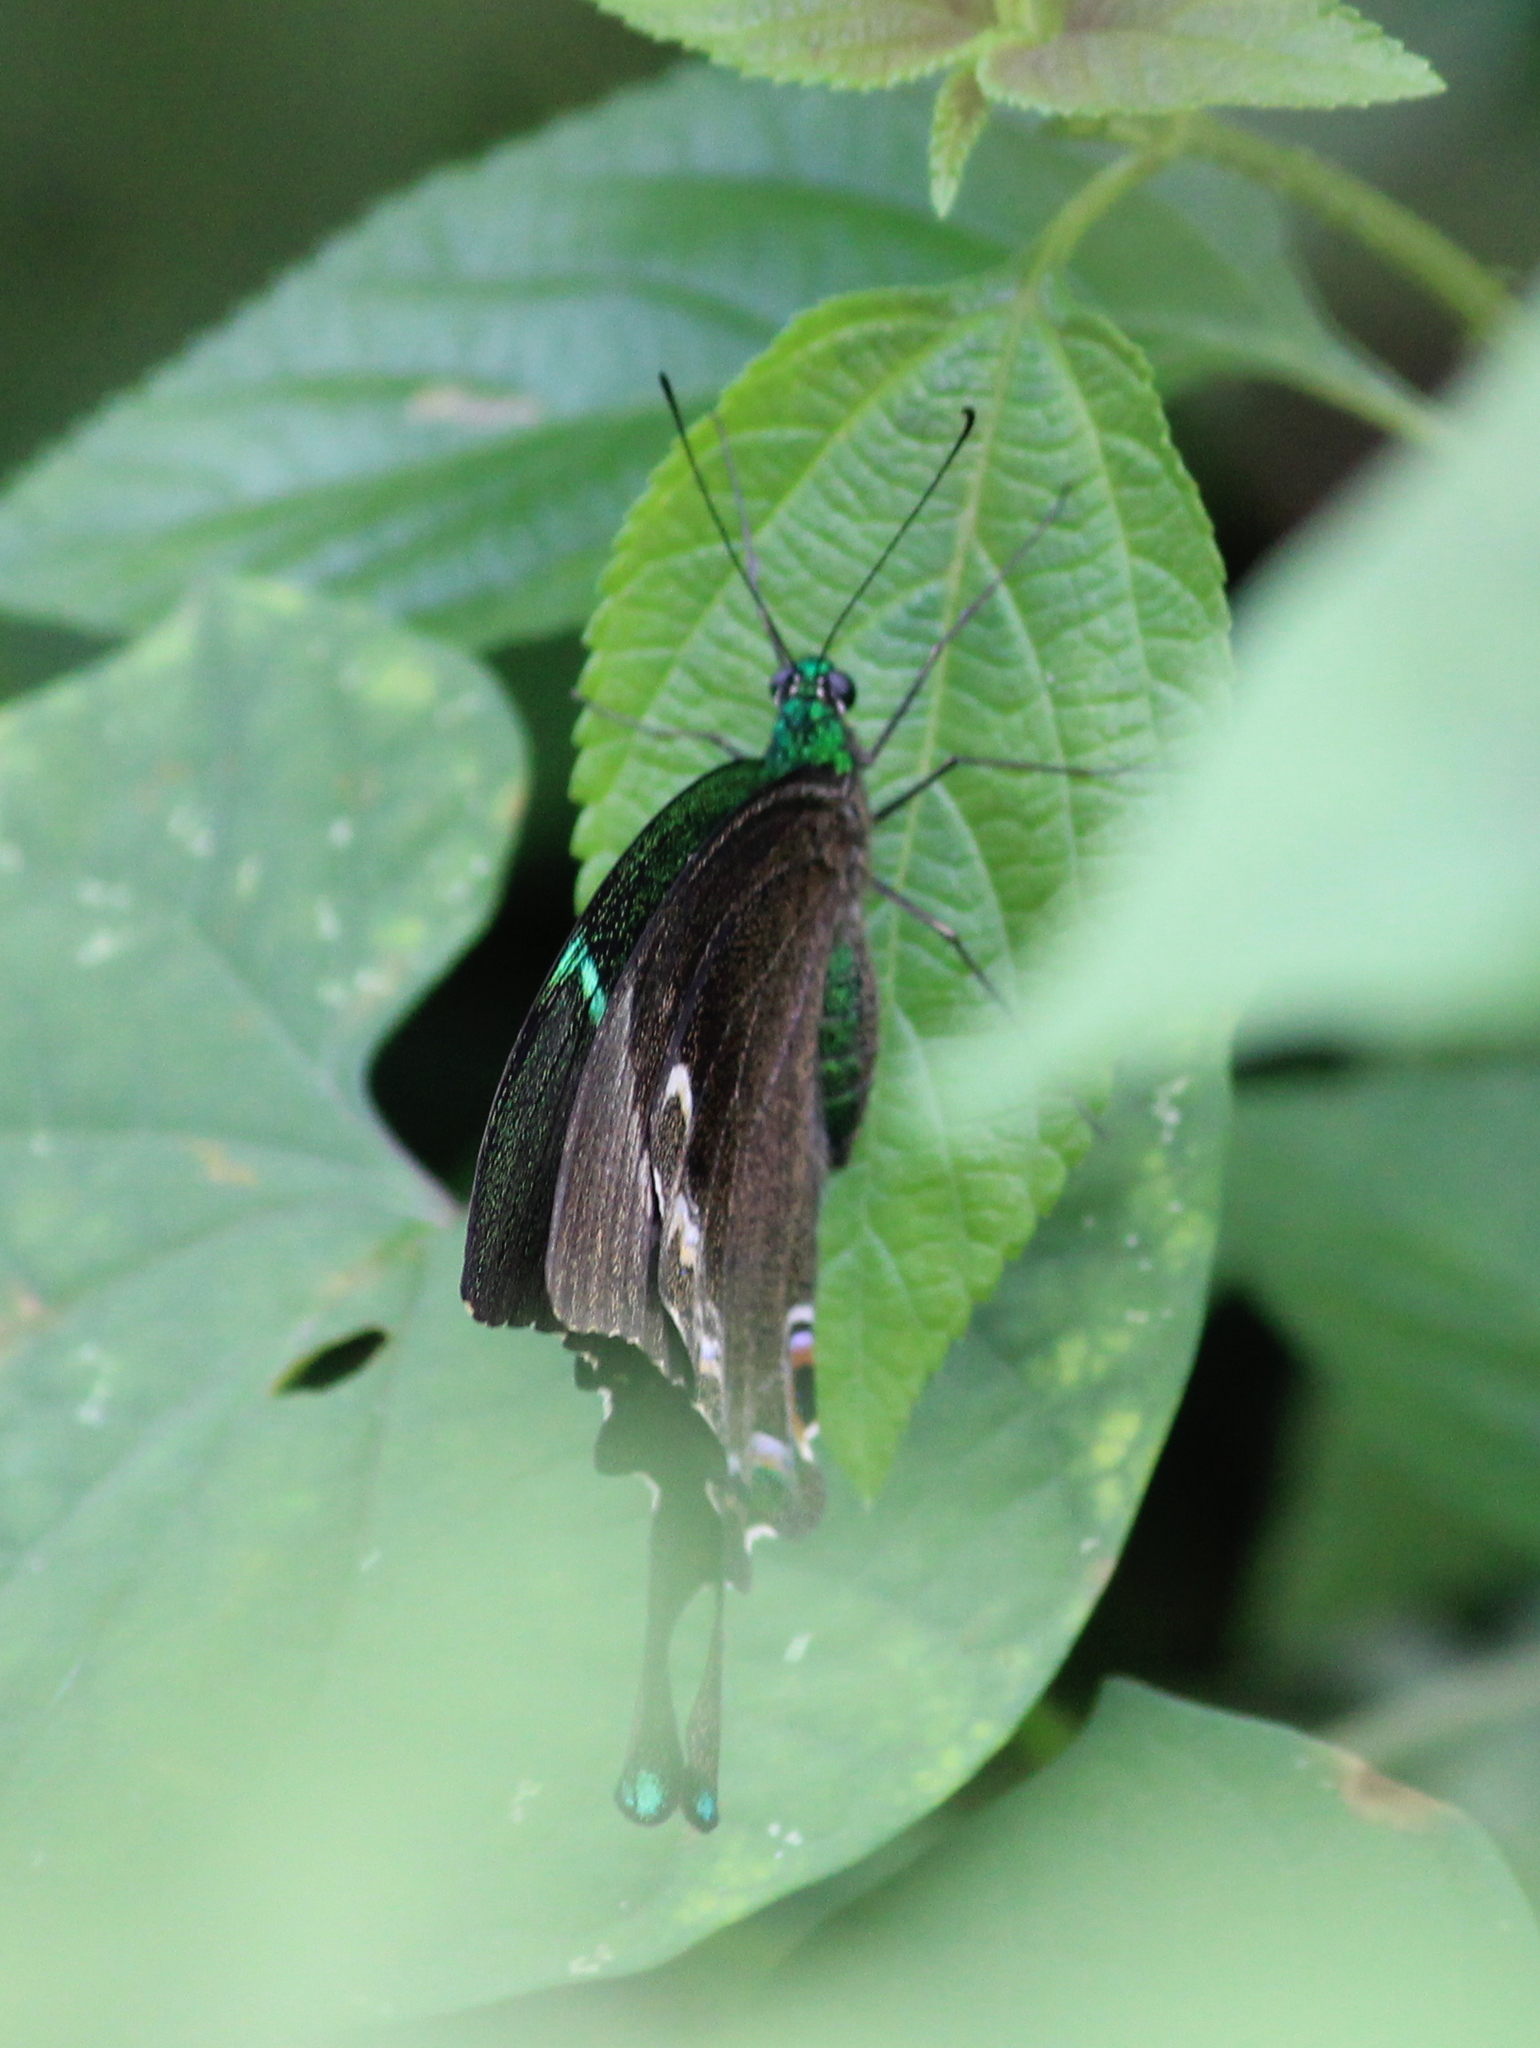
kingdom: Animalia
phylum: Arthropoda
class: Insecta
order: Lepidoptera
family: Papilionidae
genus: Papilio
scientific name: Papilio crino
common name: Common banded peacock
